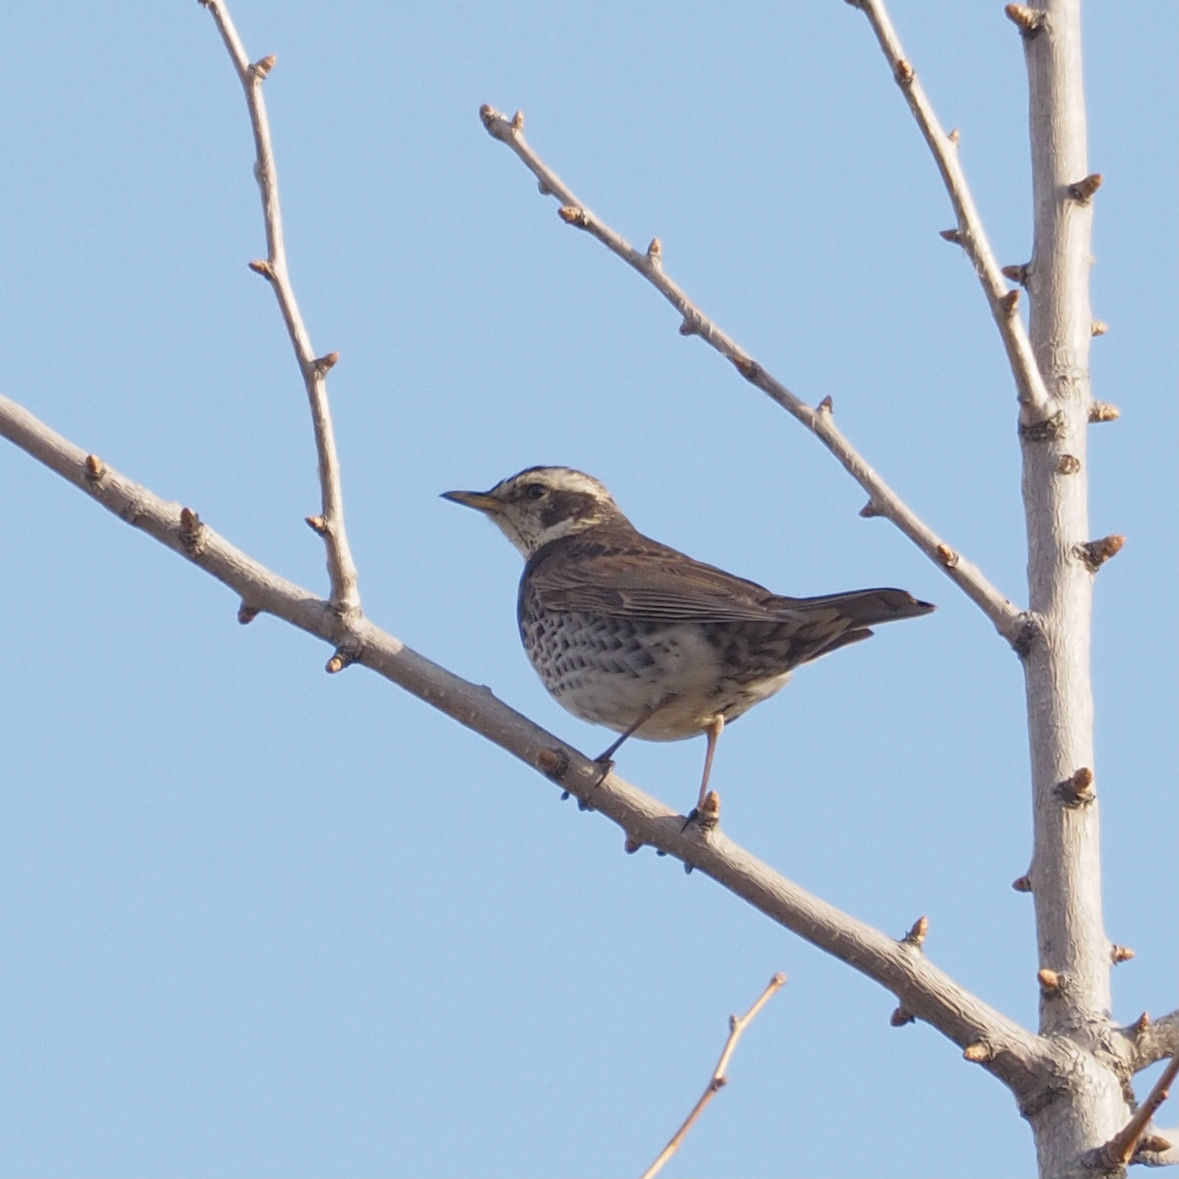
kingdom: Animalia
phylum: Chordata
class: Aves
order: Passeriformes
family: Turdidae
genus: Turdus
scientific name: Turdus eunomus
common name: Dusky thrush
